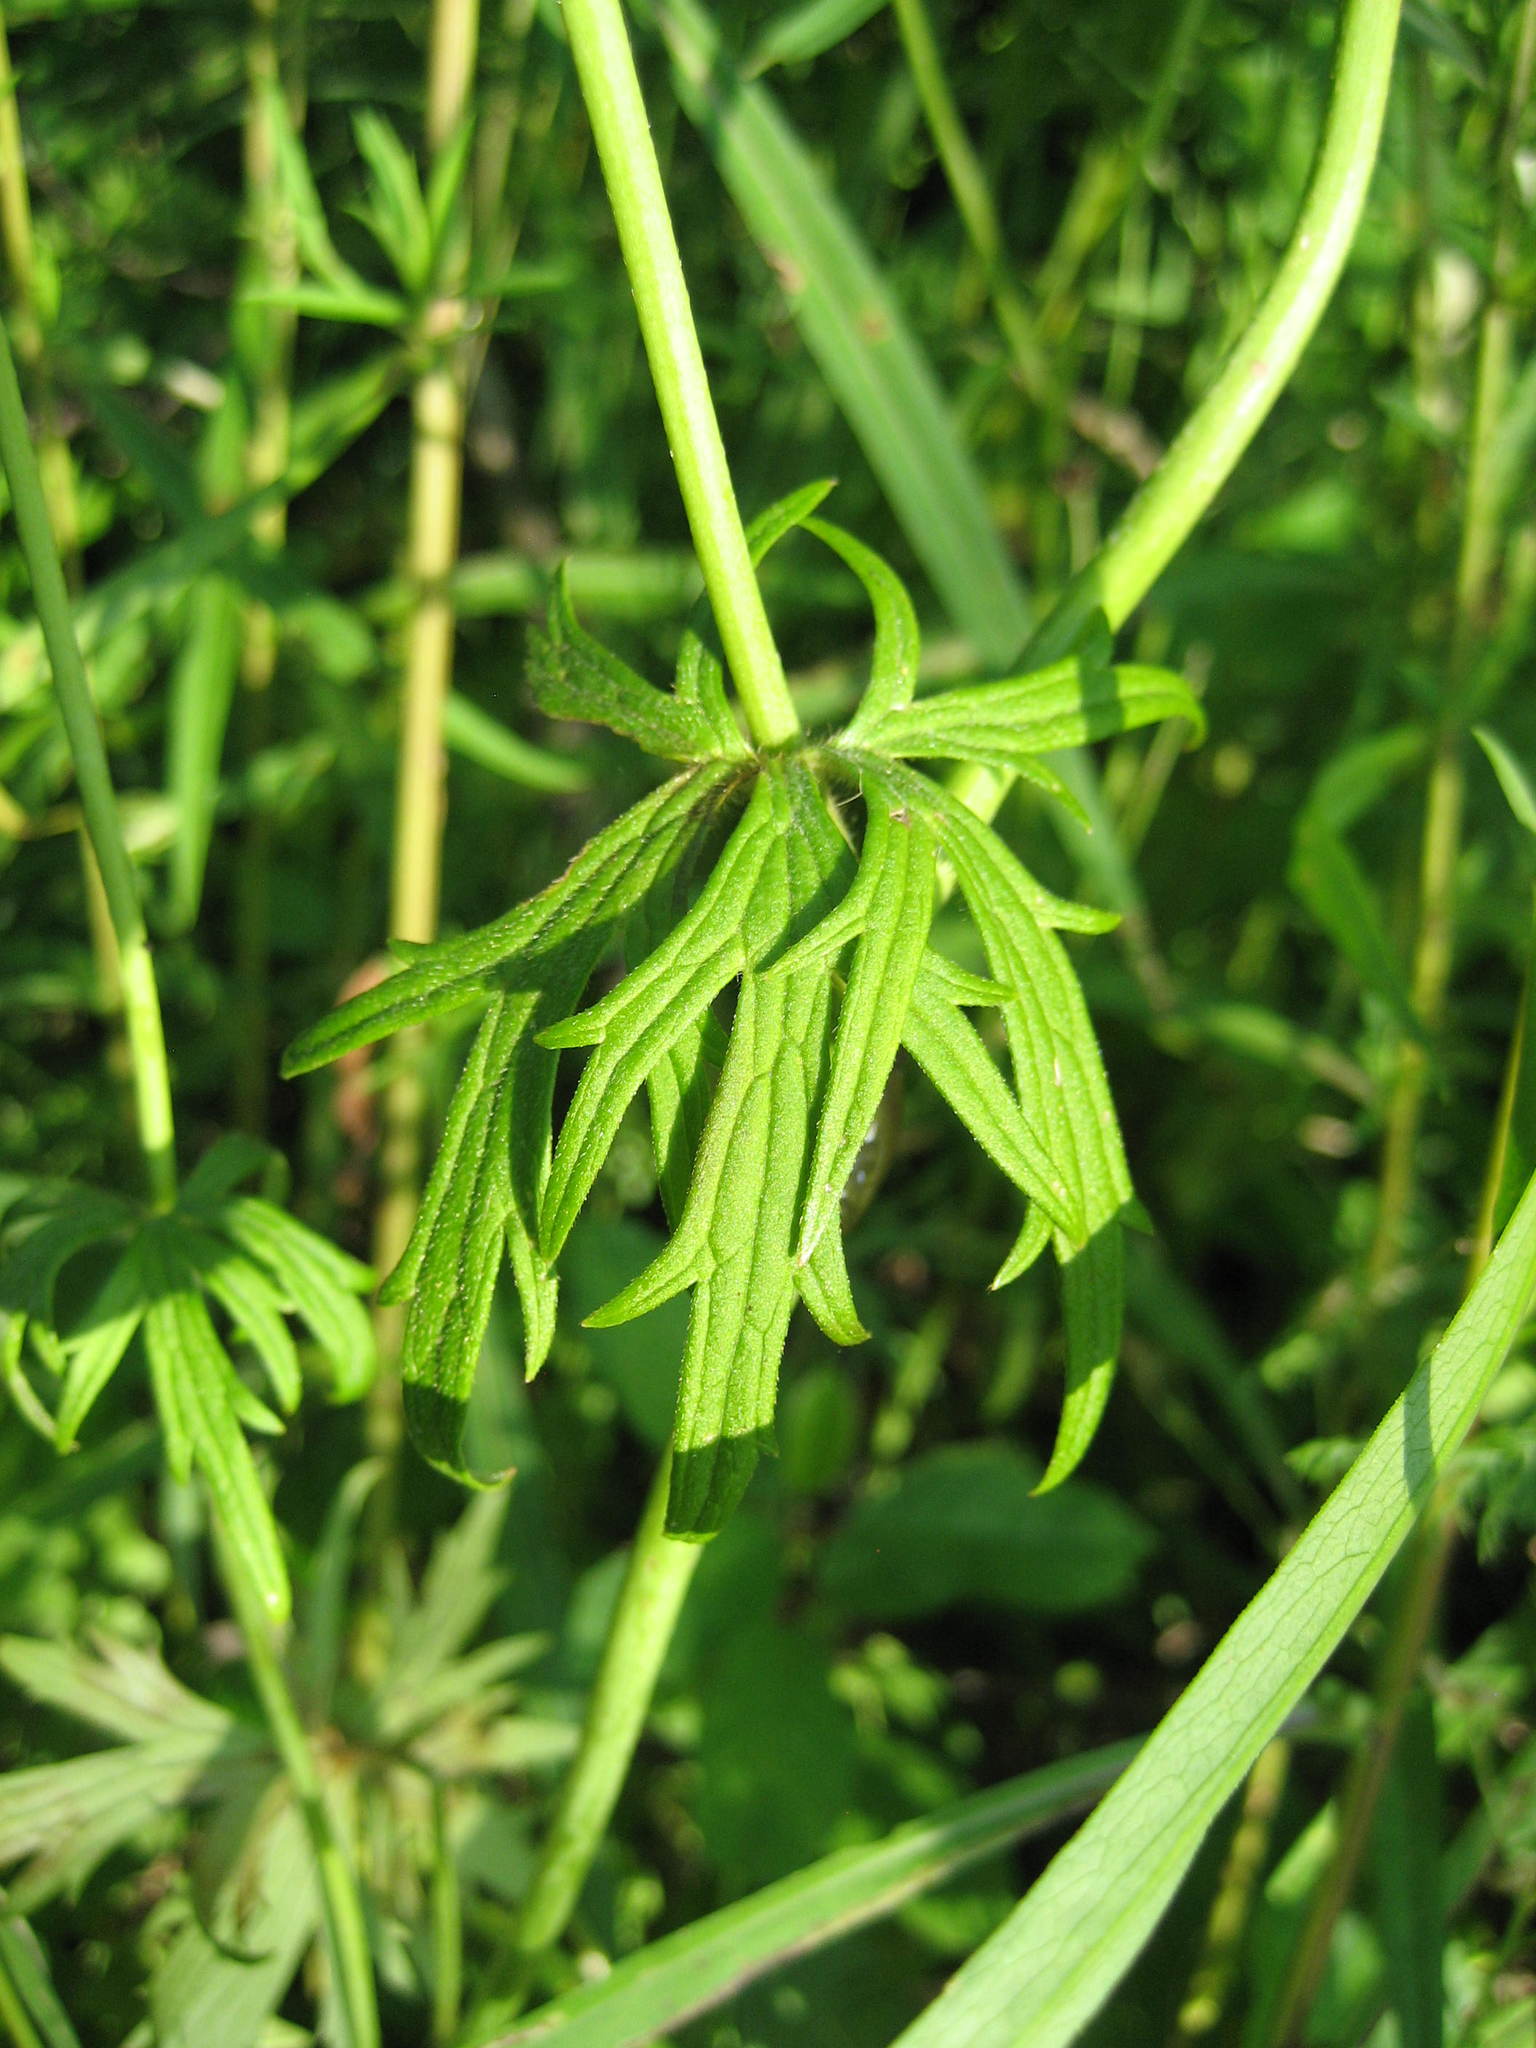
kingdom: Plantae
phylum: Tracheophyta
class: Magnoliopsida
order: Ranunculales
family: Ranunculaceae
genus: Ranunculus
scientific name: Ranunculus acris
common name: Meadow buttercup
